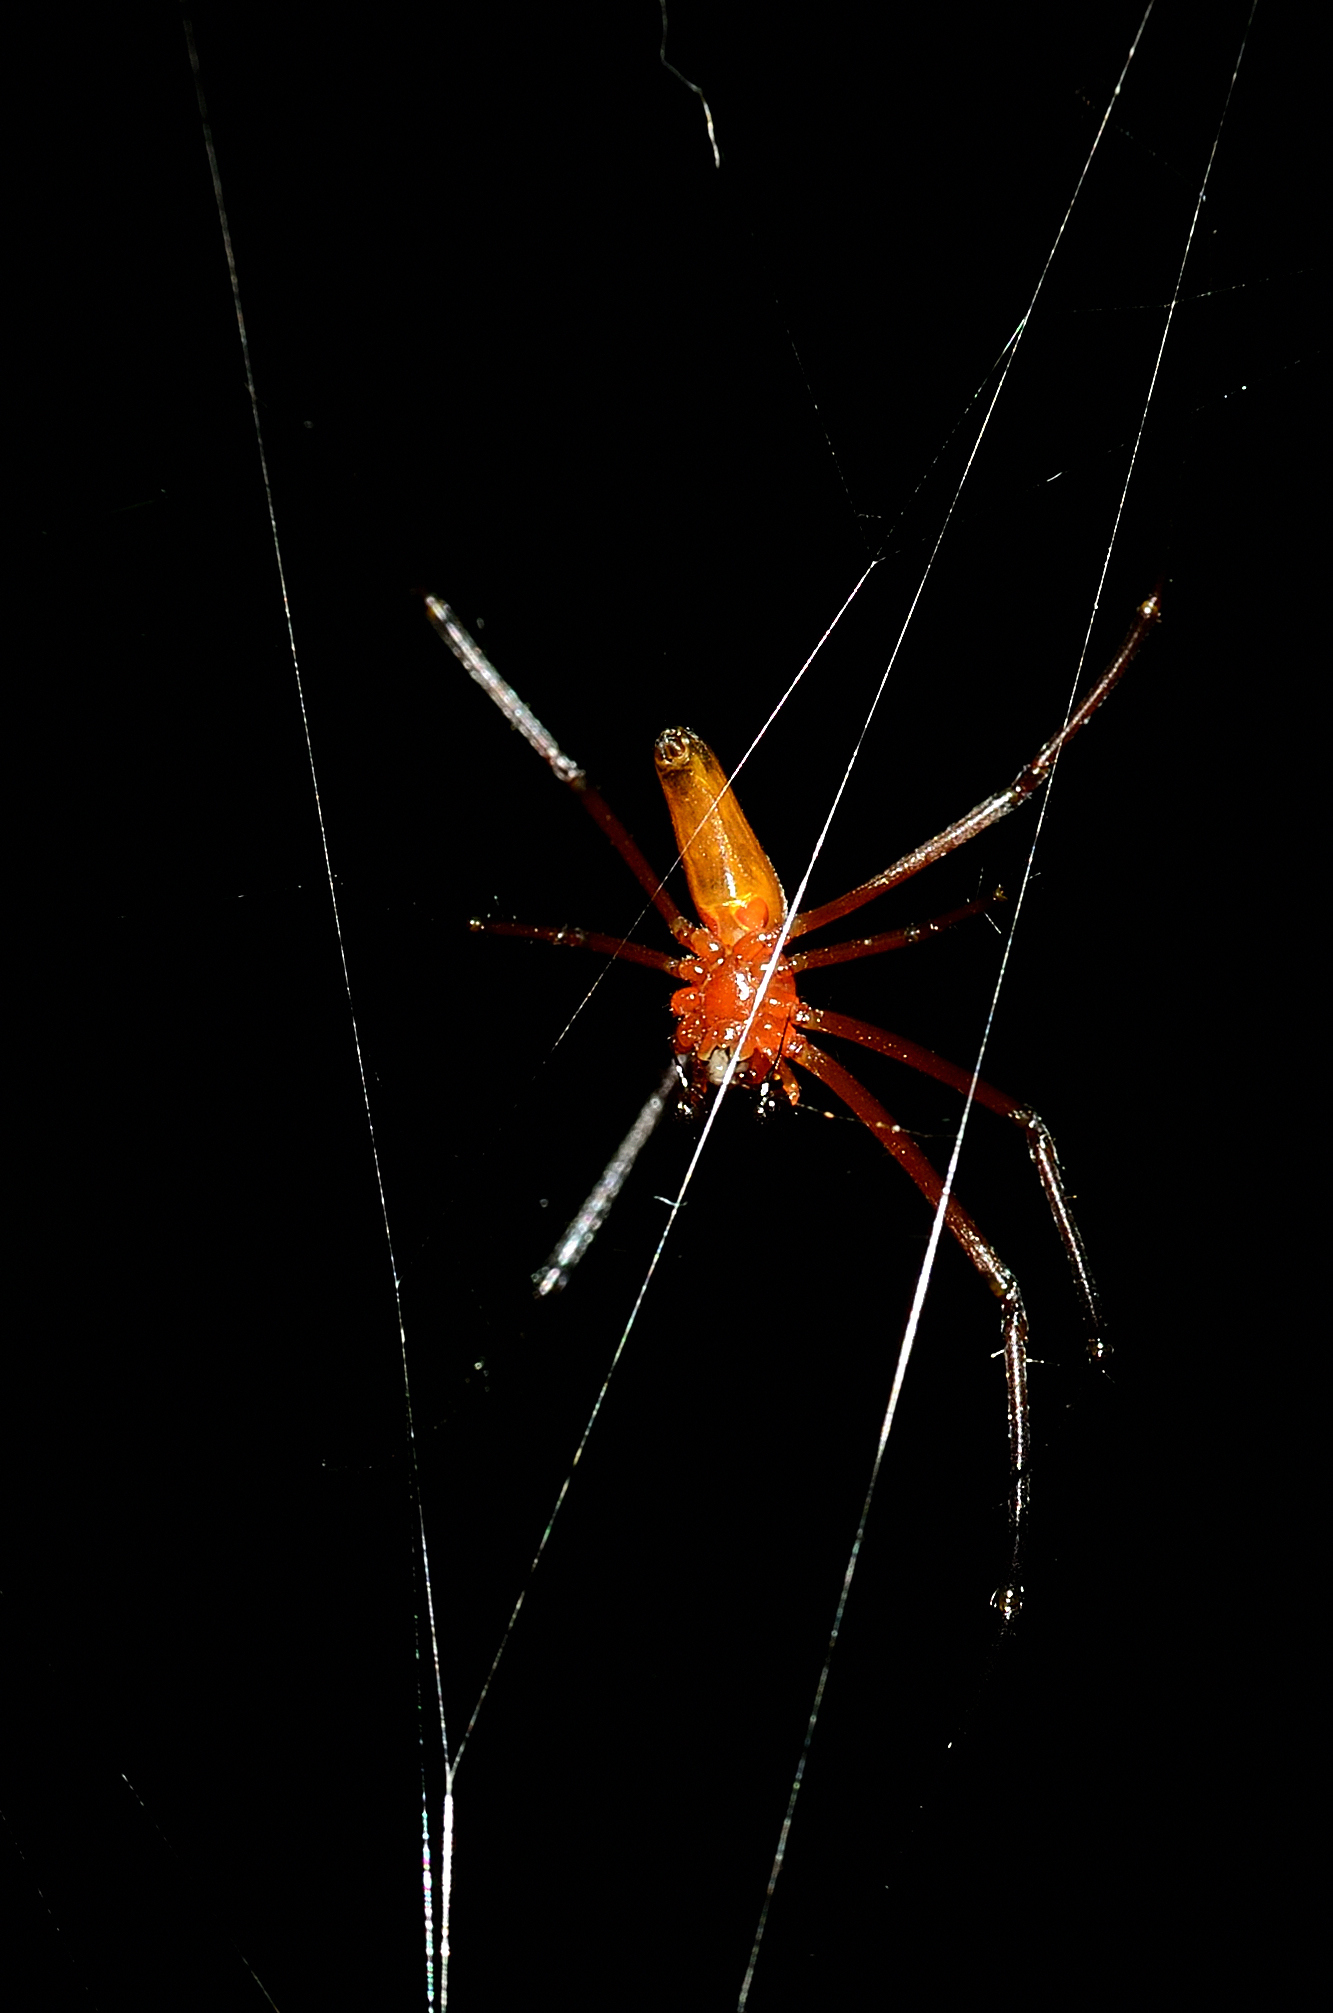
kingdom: Animalia
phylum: Arthropoda
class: Arachnida
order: Araneae
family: Araneidae
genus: Nephila
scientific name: Nephila kuhli
